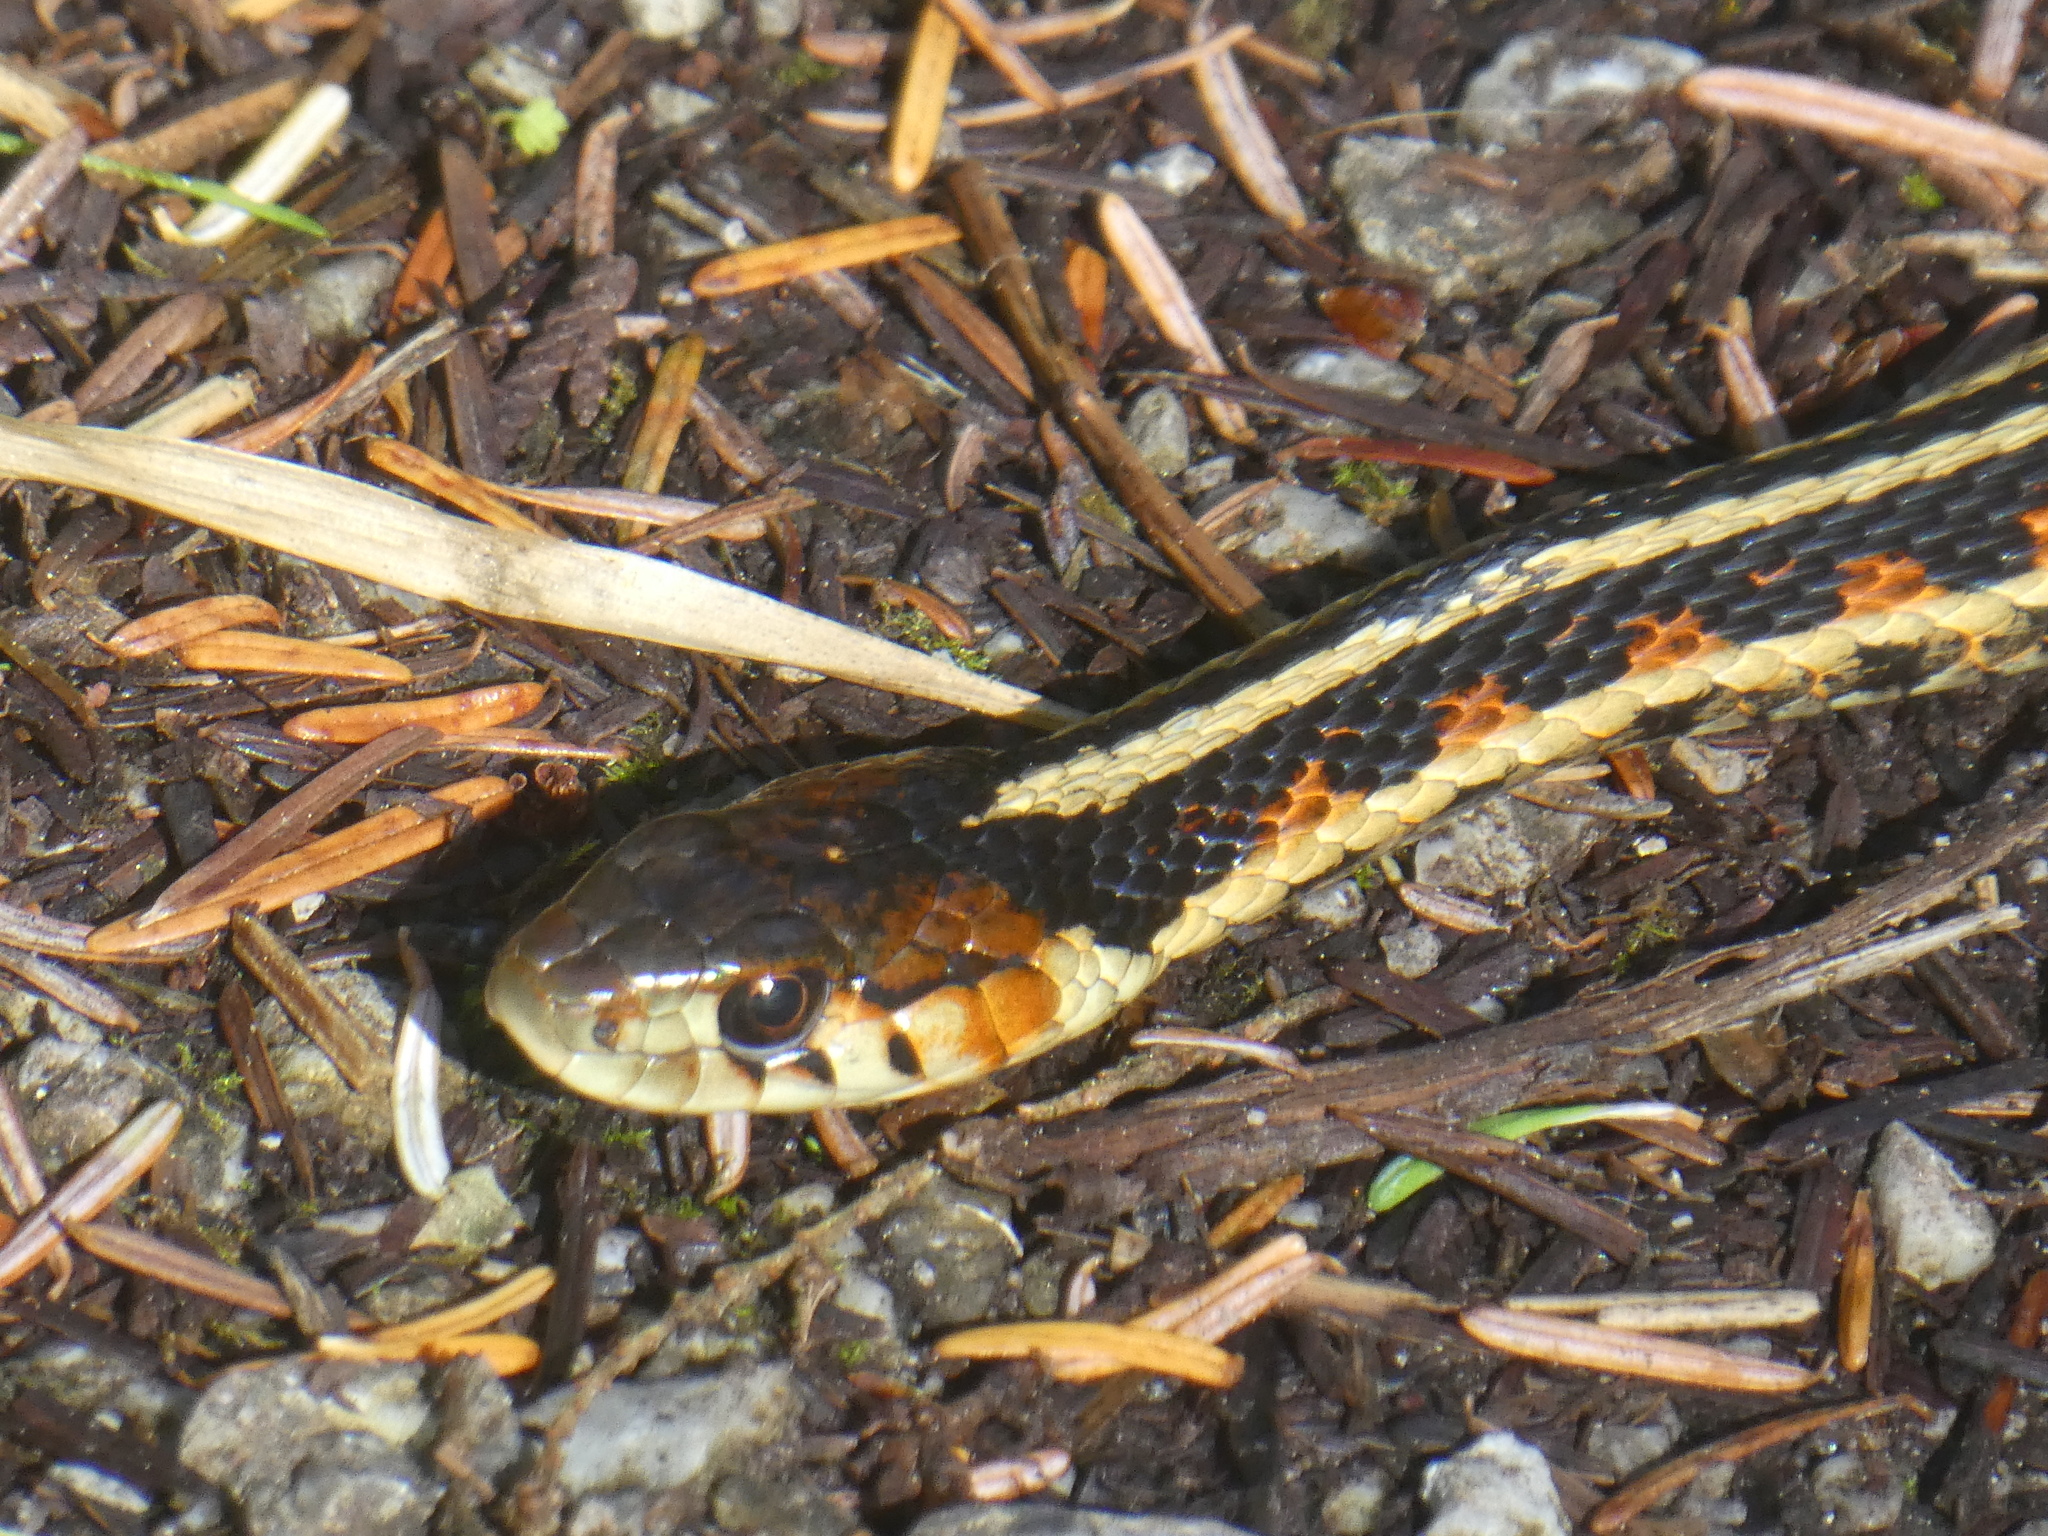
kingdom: Animalia
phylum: Chordata
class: Squamata
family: Colubridae
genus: Thamnophis
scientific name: Thamnophis sirtalis
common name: Common garter snake
